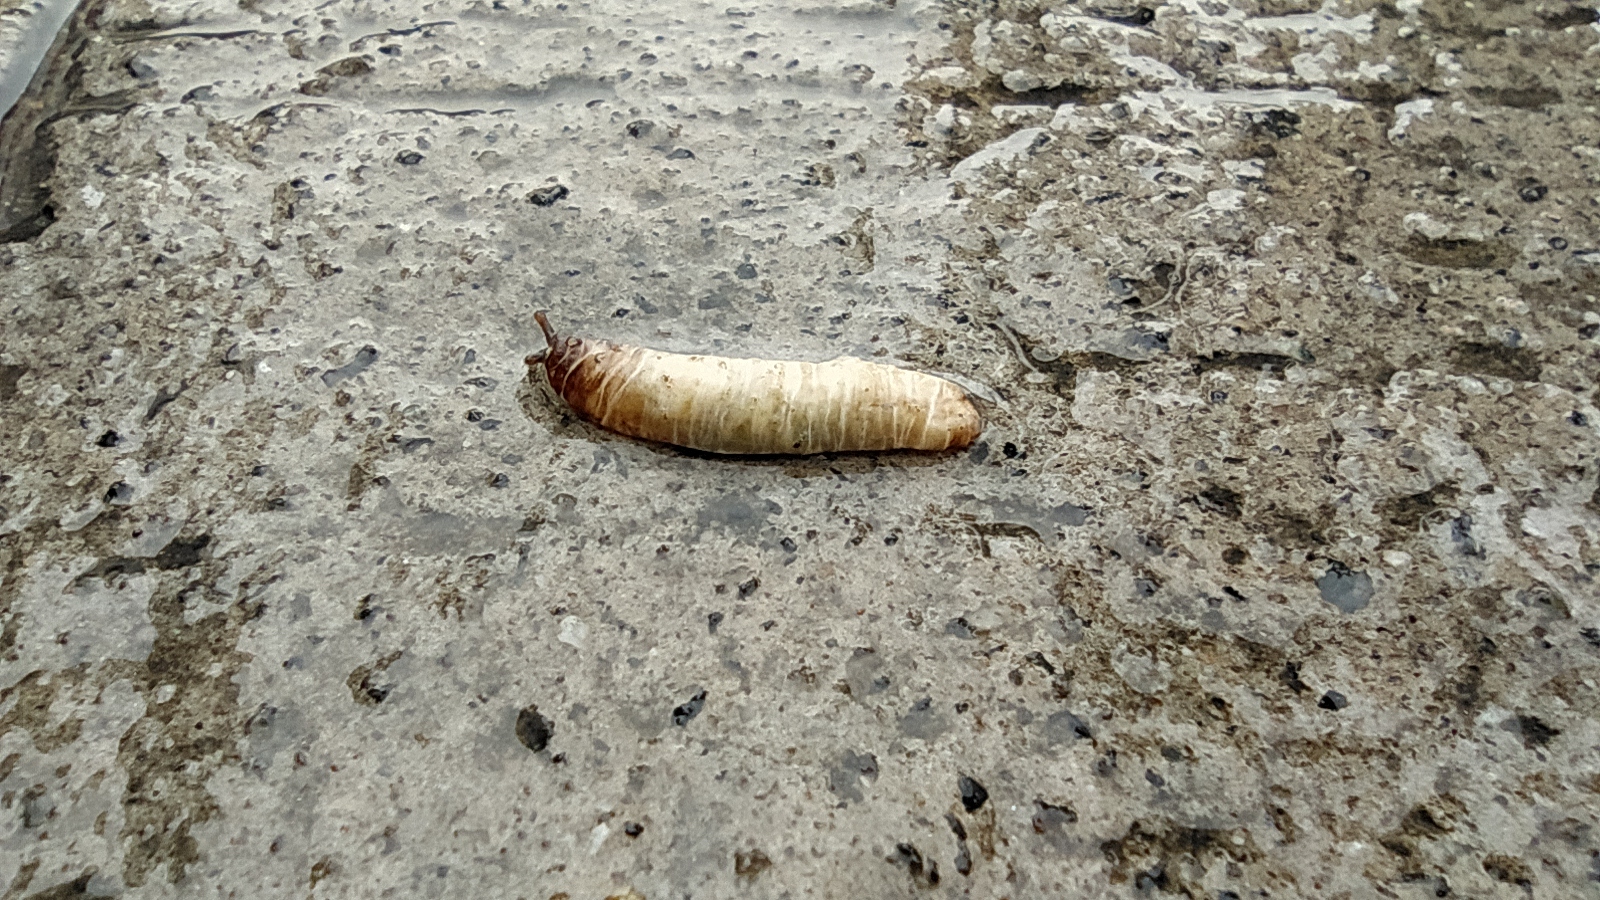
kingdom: Animalia
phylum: Mollusca
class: Gastropoda
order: Systellommatophora
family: Veronicellidae
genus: Laevicaulis
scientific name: Laevicaulis haroldi
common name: Caterpillar slug
